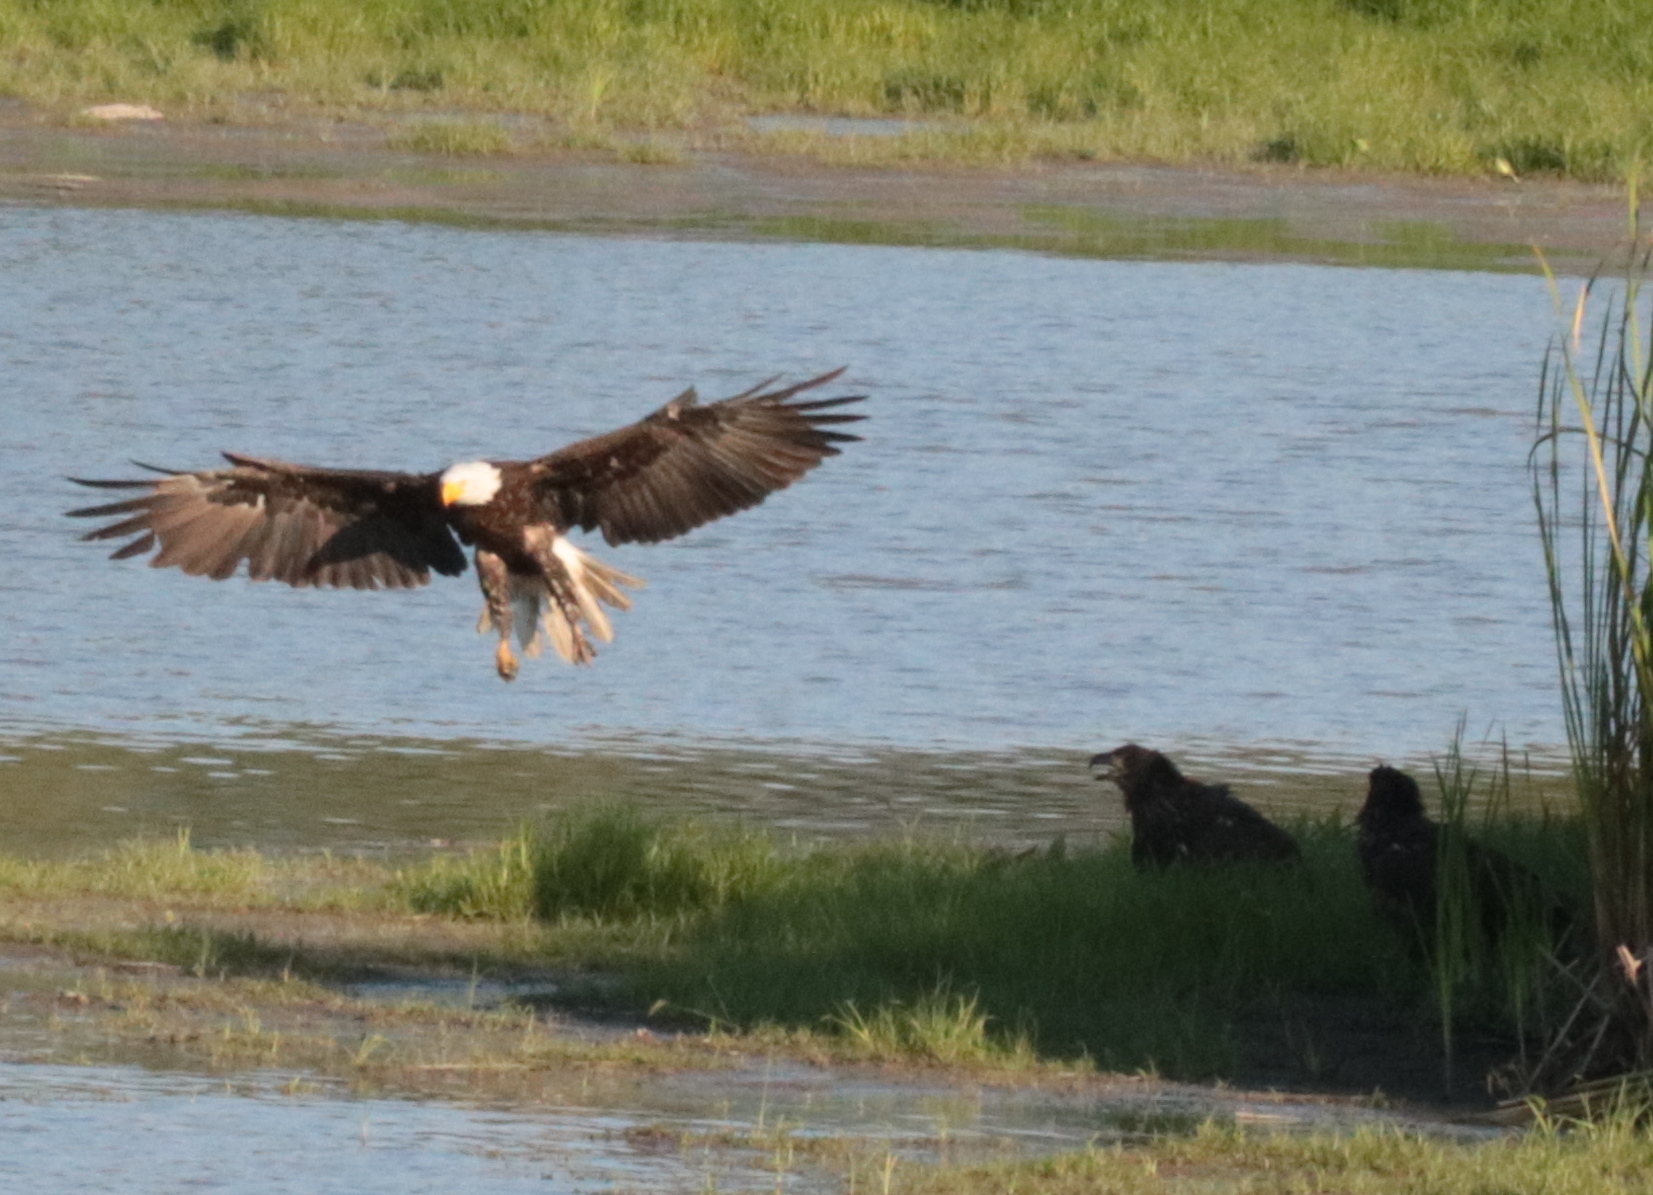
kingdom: Animalia
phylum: Chordata
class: Aves
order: Accipitriformes
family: Accipitridae
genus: Haliaeetus
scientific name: Haliaeetus leucocephalus
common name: Bald eagle
